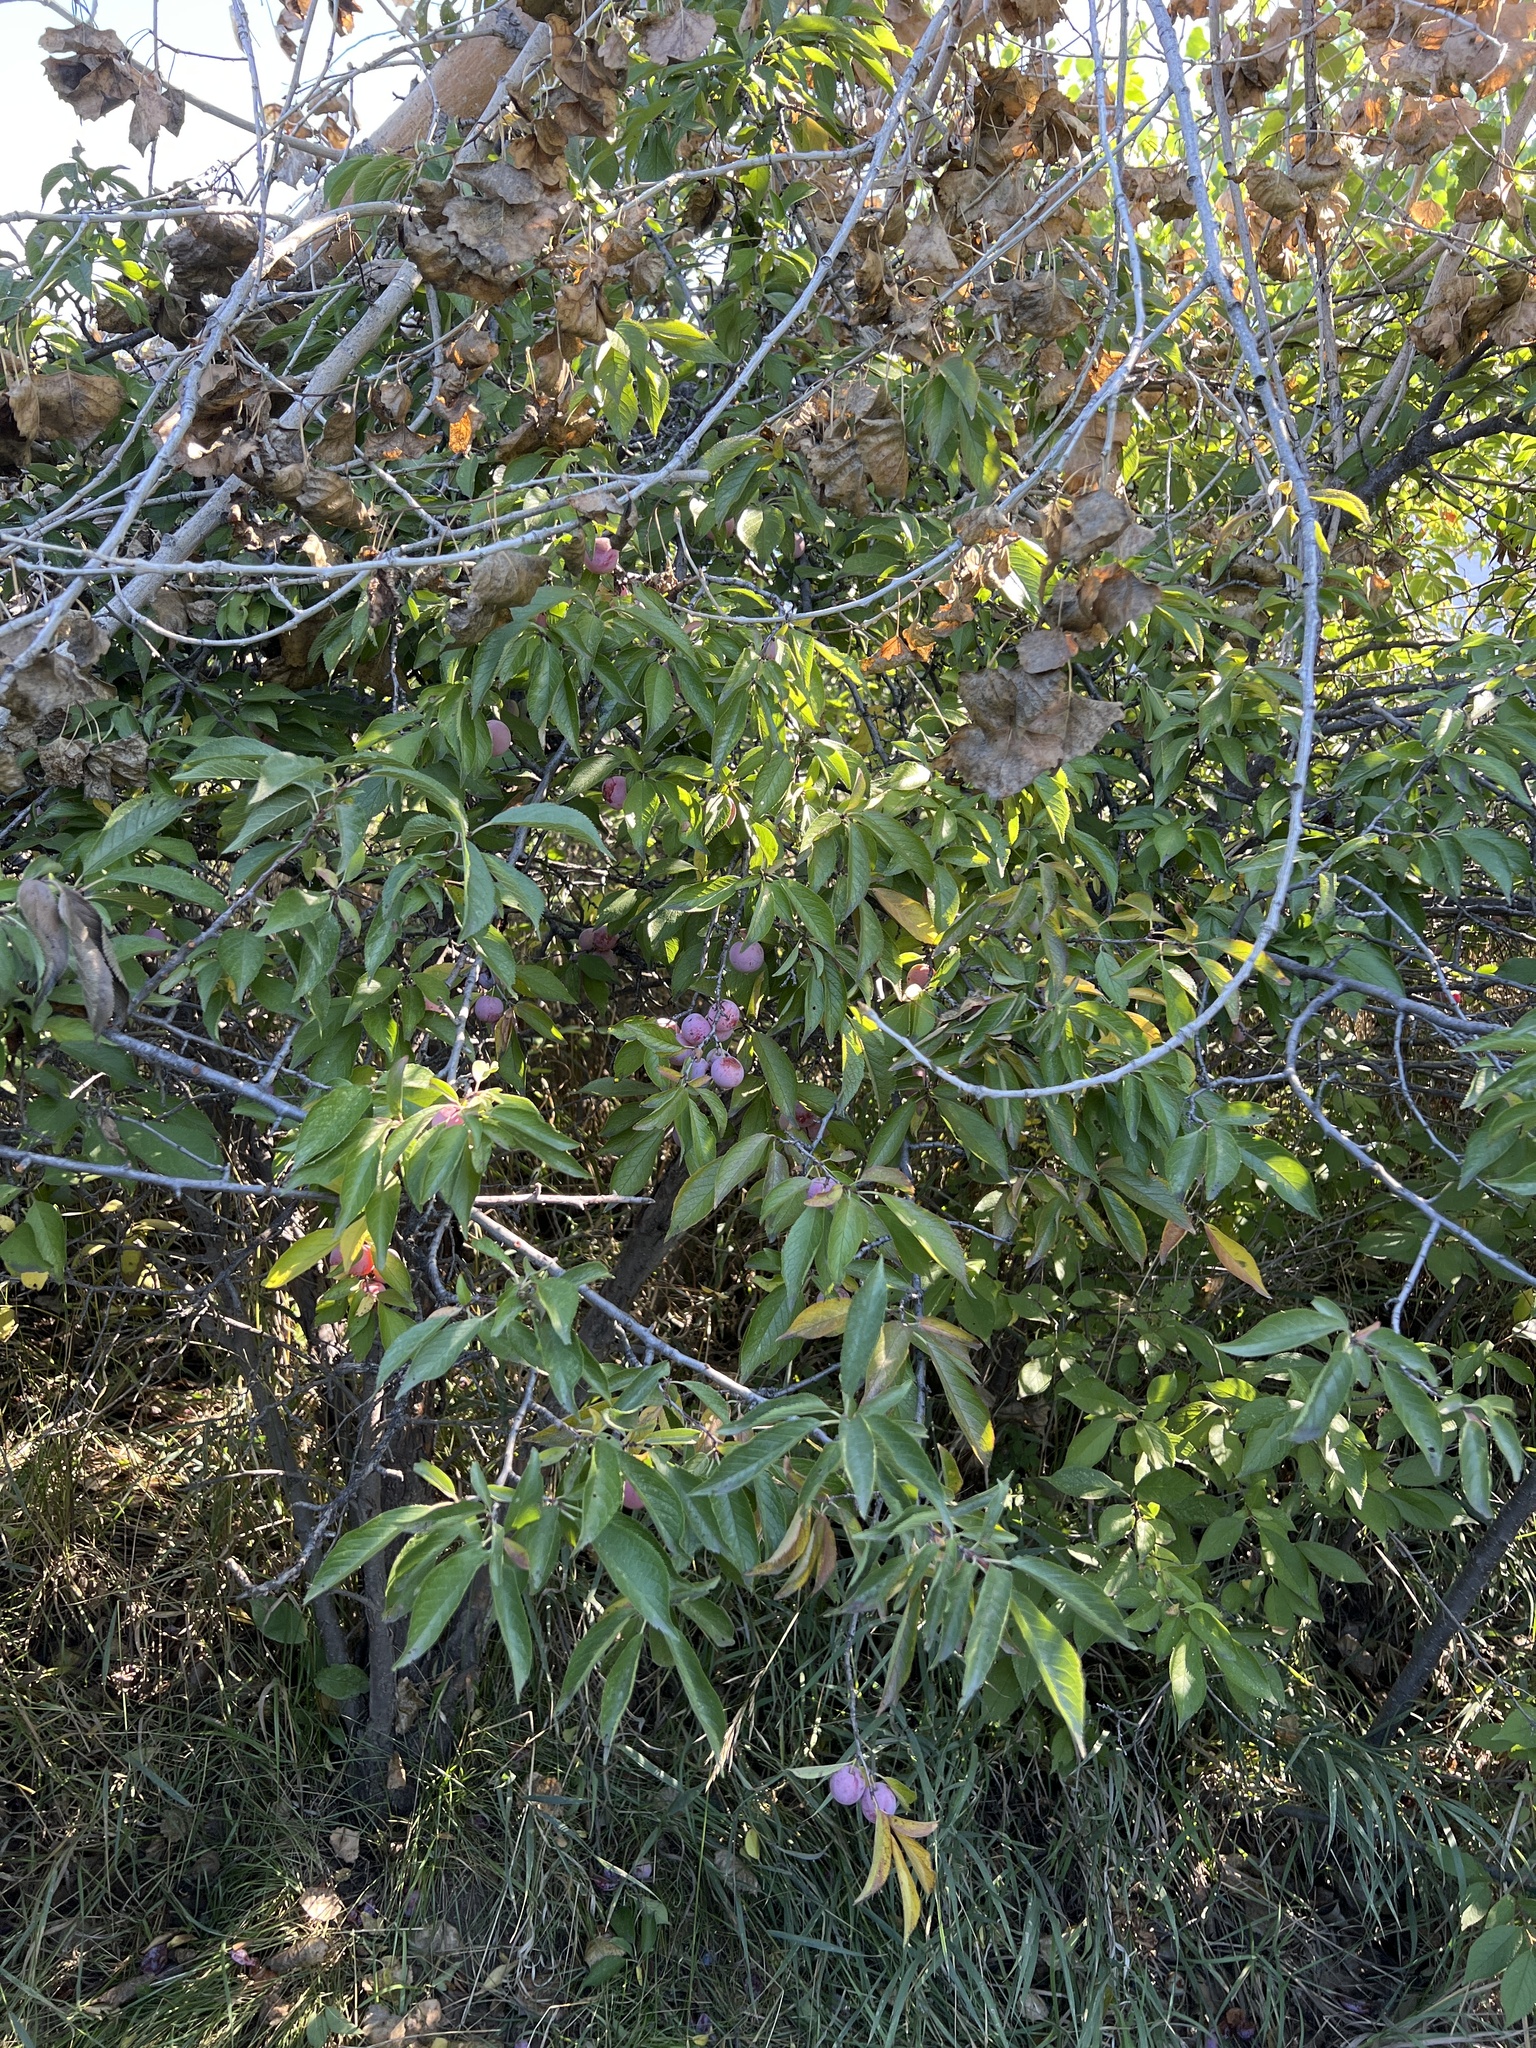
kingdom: Plantae
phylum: Tracheophyta
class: Magnoliopsida
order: Rosales
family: Rosaceae
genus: Prunus
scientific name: Prunus americana
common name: American plum
